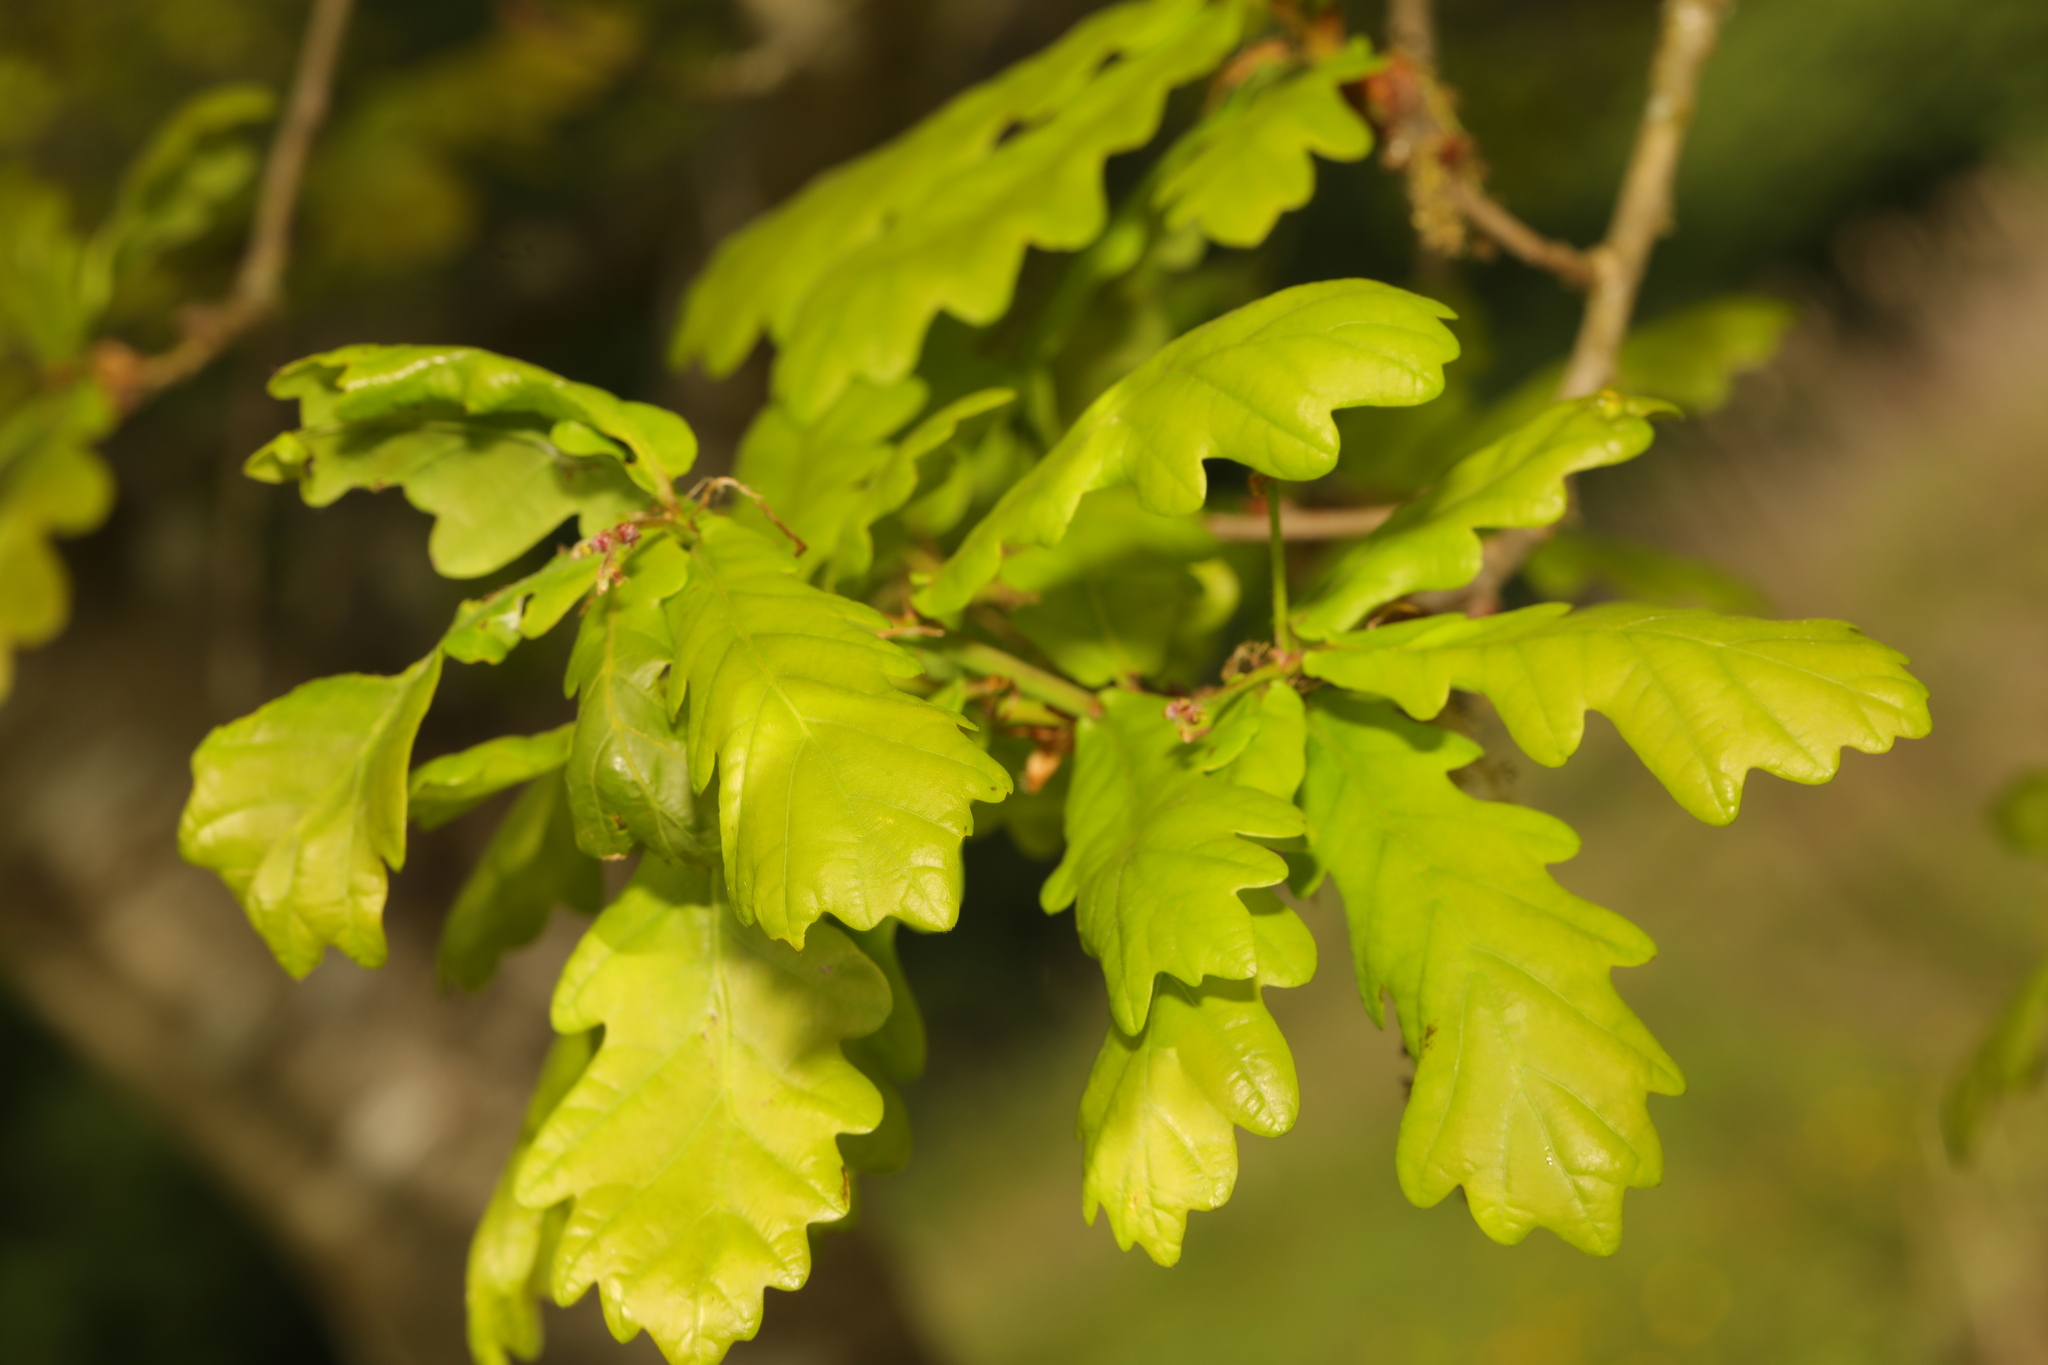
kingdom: Plantae
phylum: Tracheophyta
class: Magnoliopsida
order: Fagales
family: Fagaceae
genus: Quercus
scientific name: Quercus robur
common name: Pedunculate oak
